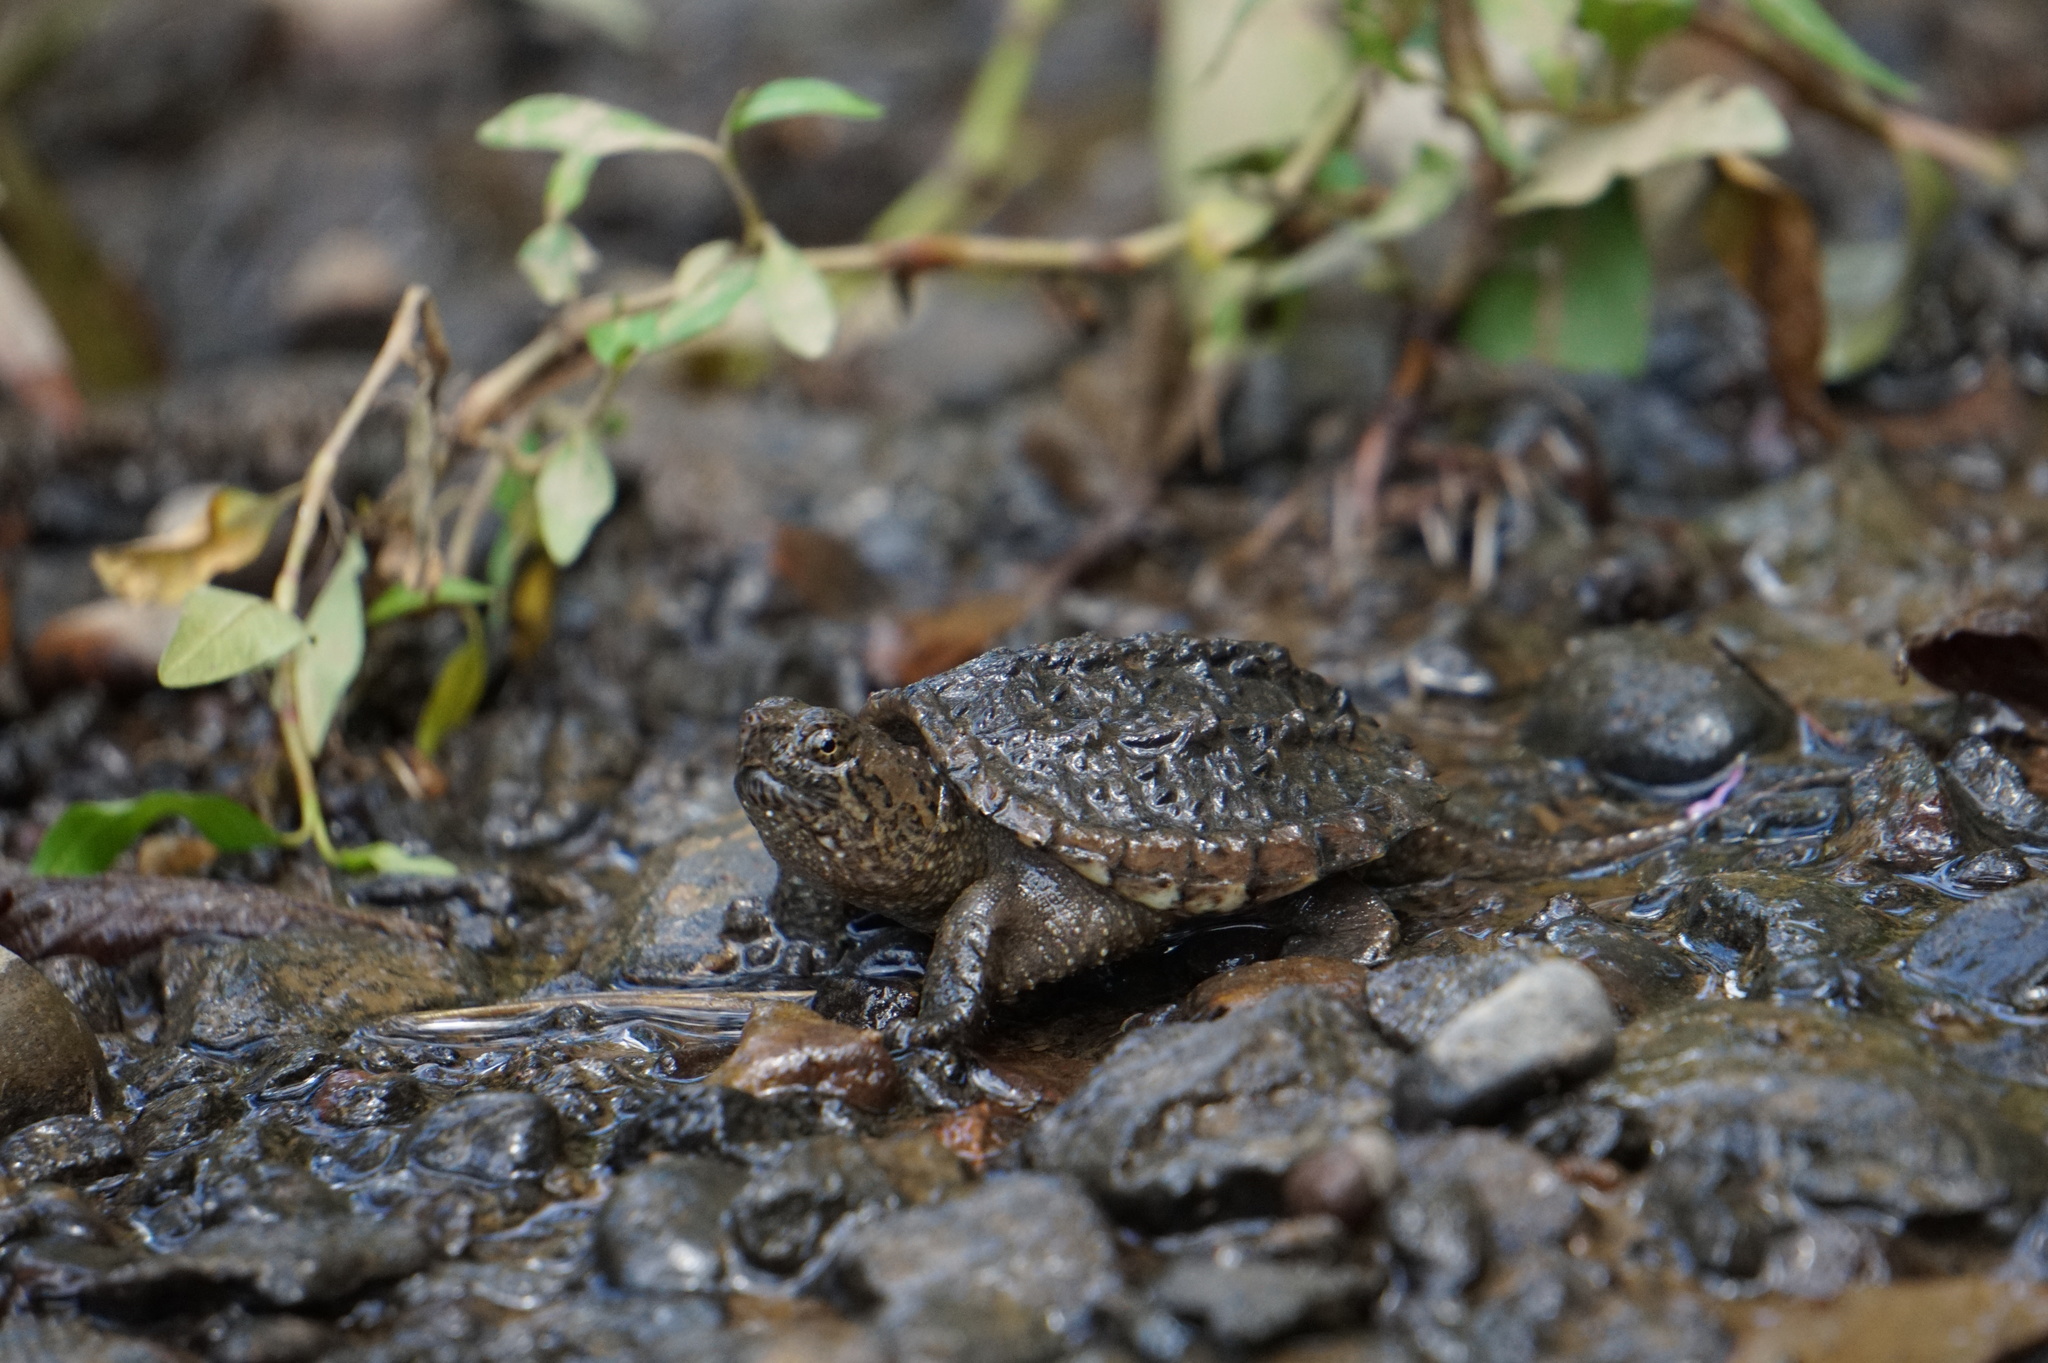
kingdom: Animalia
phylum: Chordata
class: Testudines
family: Chelydridae
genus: Chelydra
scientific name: Chelydra serpentina
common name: Common snapping turtle
